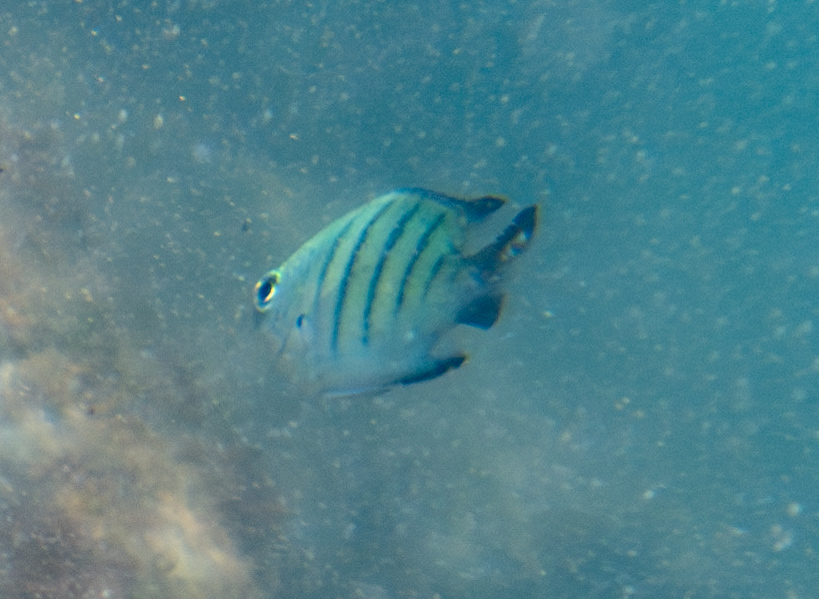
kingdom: Animalia
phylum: Chordata
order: Perciformes
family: Pomacentridae
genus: Abudefduf
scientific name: Abudefduf whitleyi
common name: Whitley's seargent
